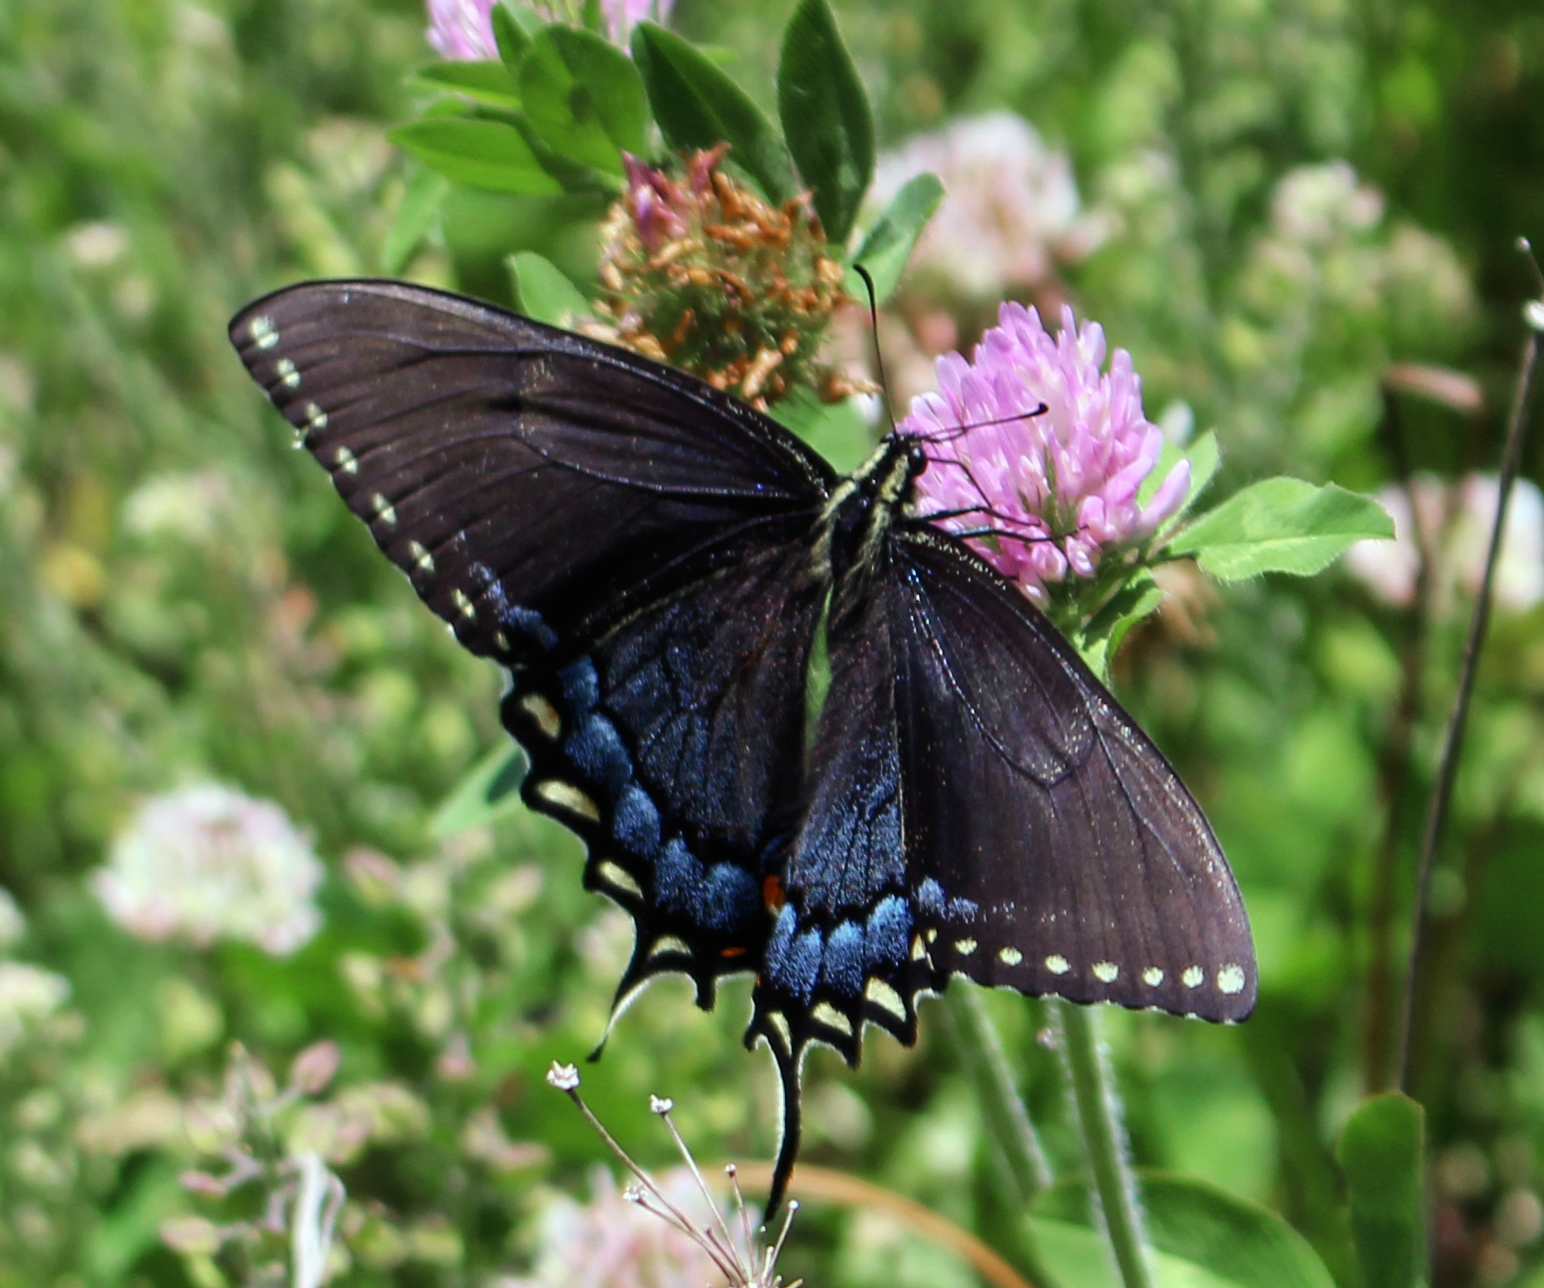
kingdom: Animalia
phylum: Arthropoda
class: Insecta
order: Lepidoptera
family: Papilionidae
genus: Papilio
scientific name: Papilio glaucus
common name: Tiger swallowtail
